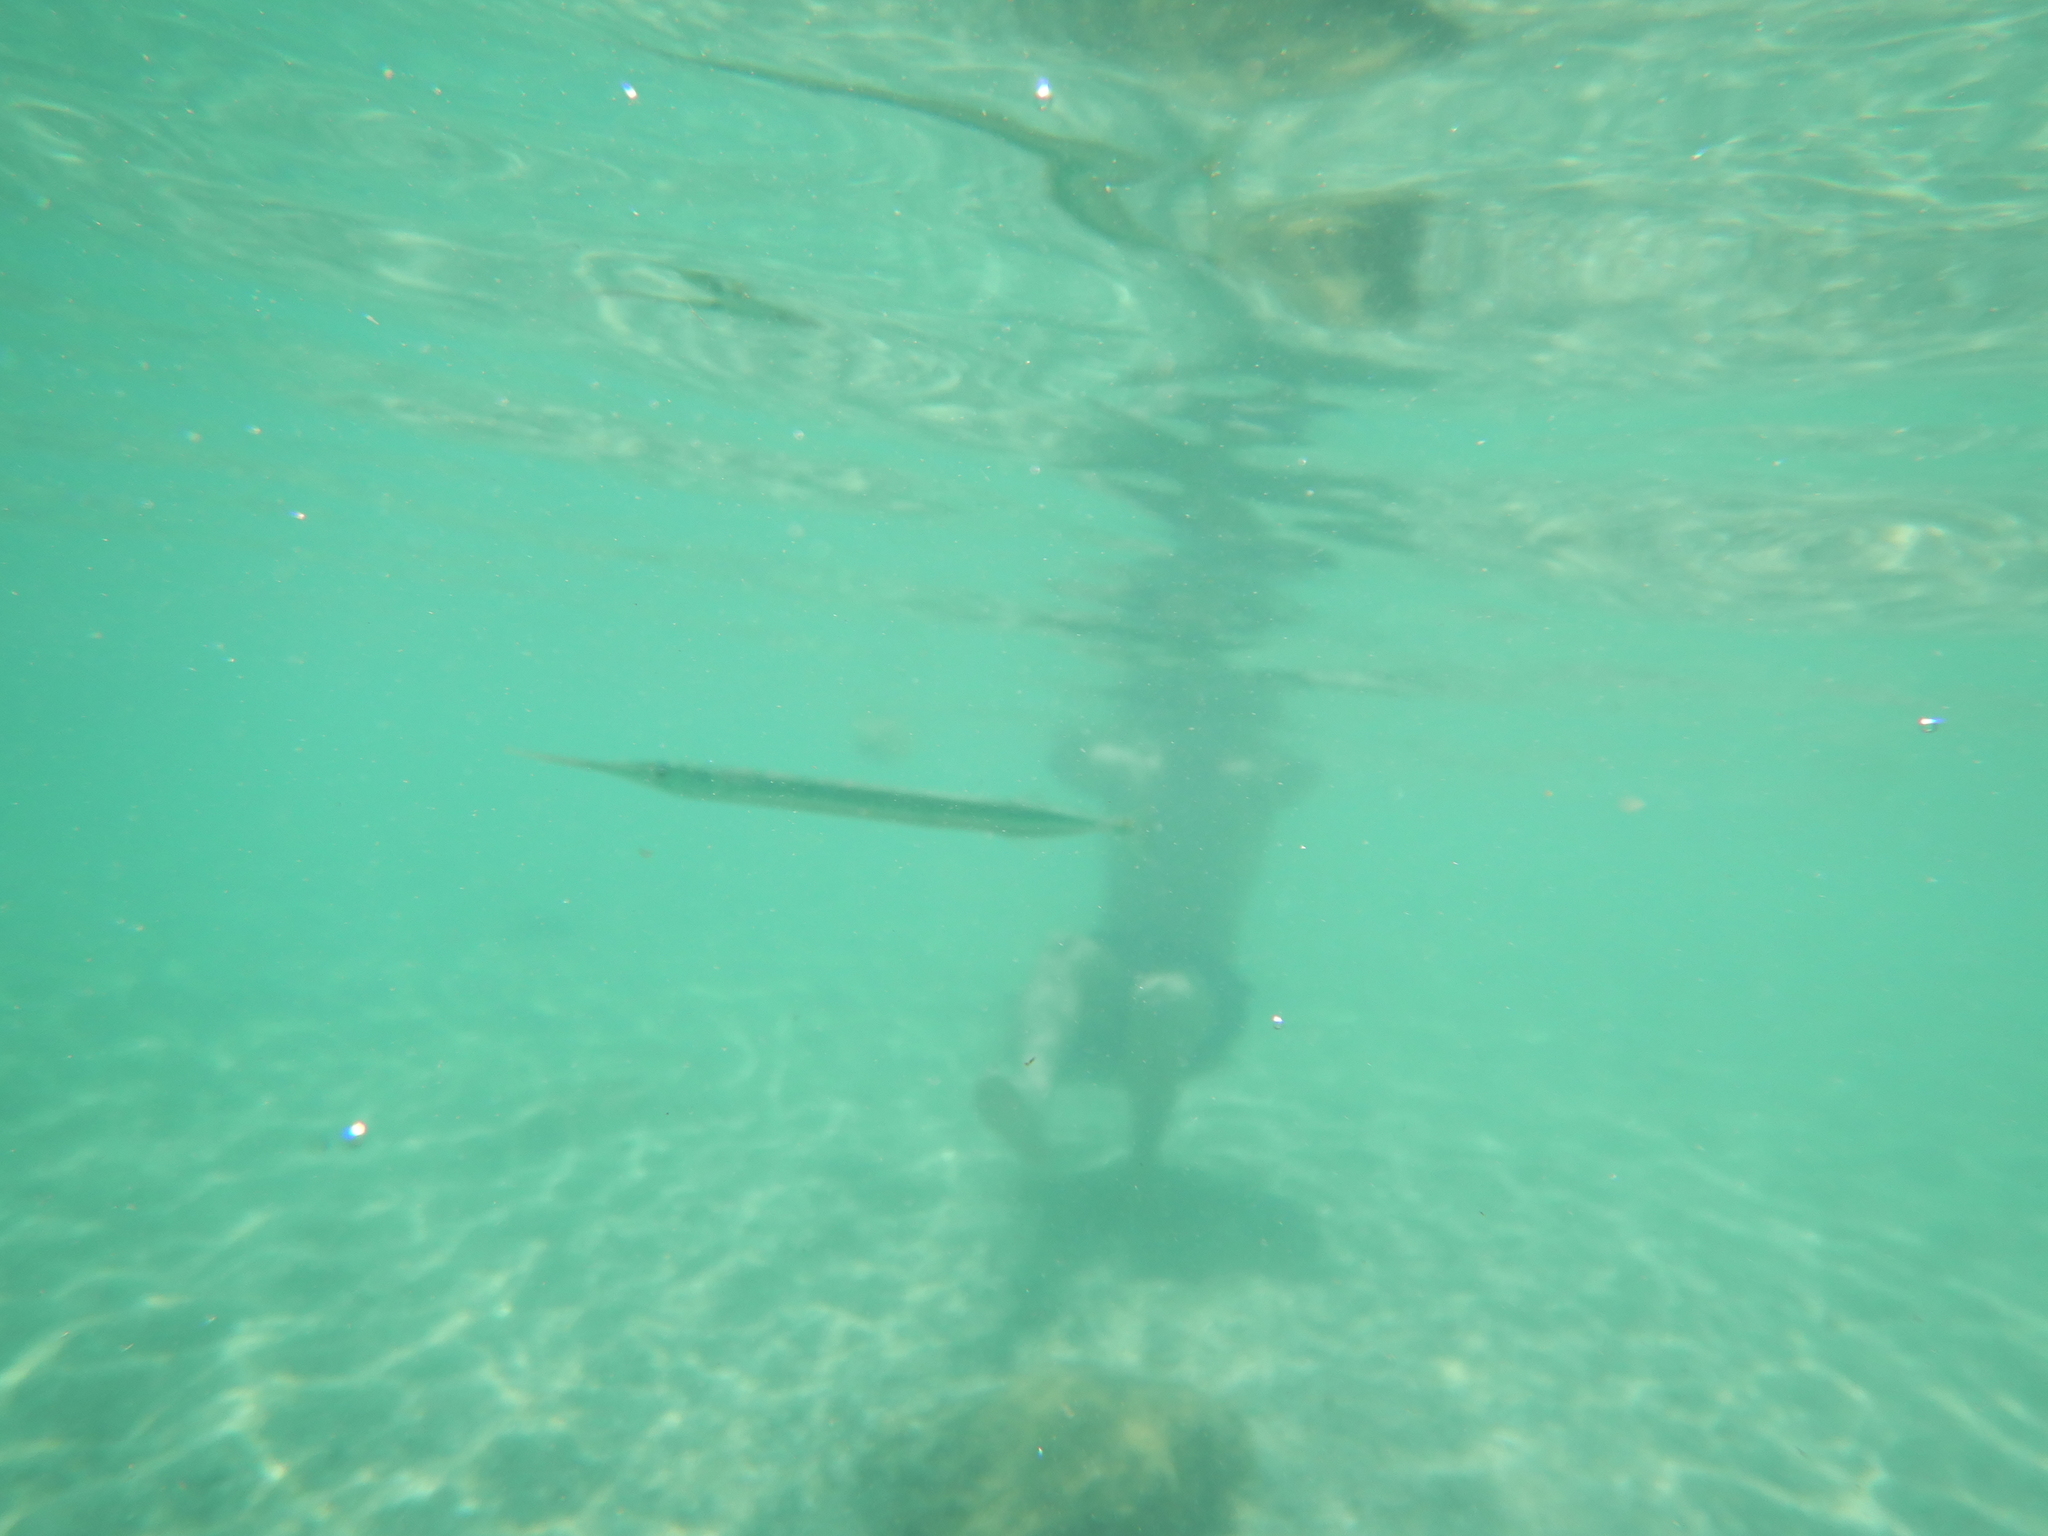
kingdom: Animalia
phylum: Chordata
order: Beloniformes
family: Belonidae
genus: Belone
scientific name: Belone belone
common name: Garfish
